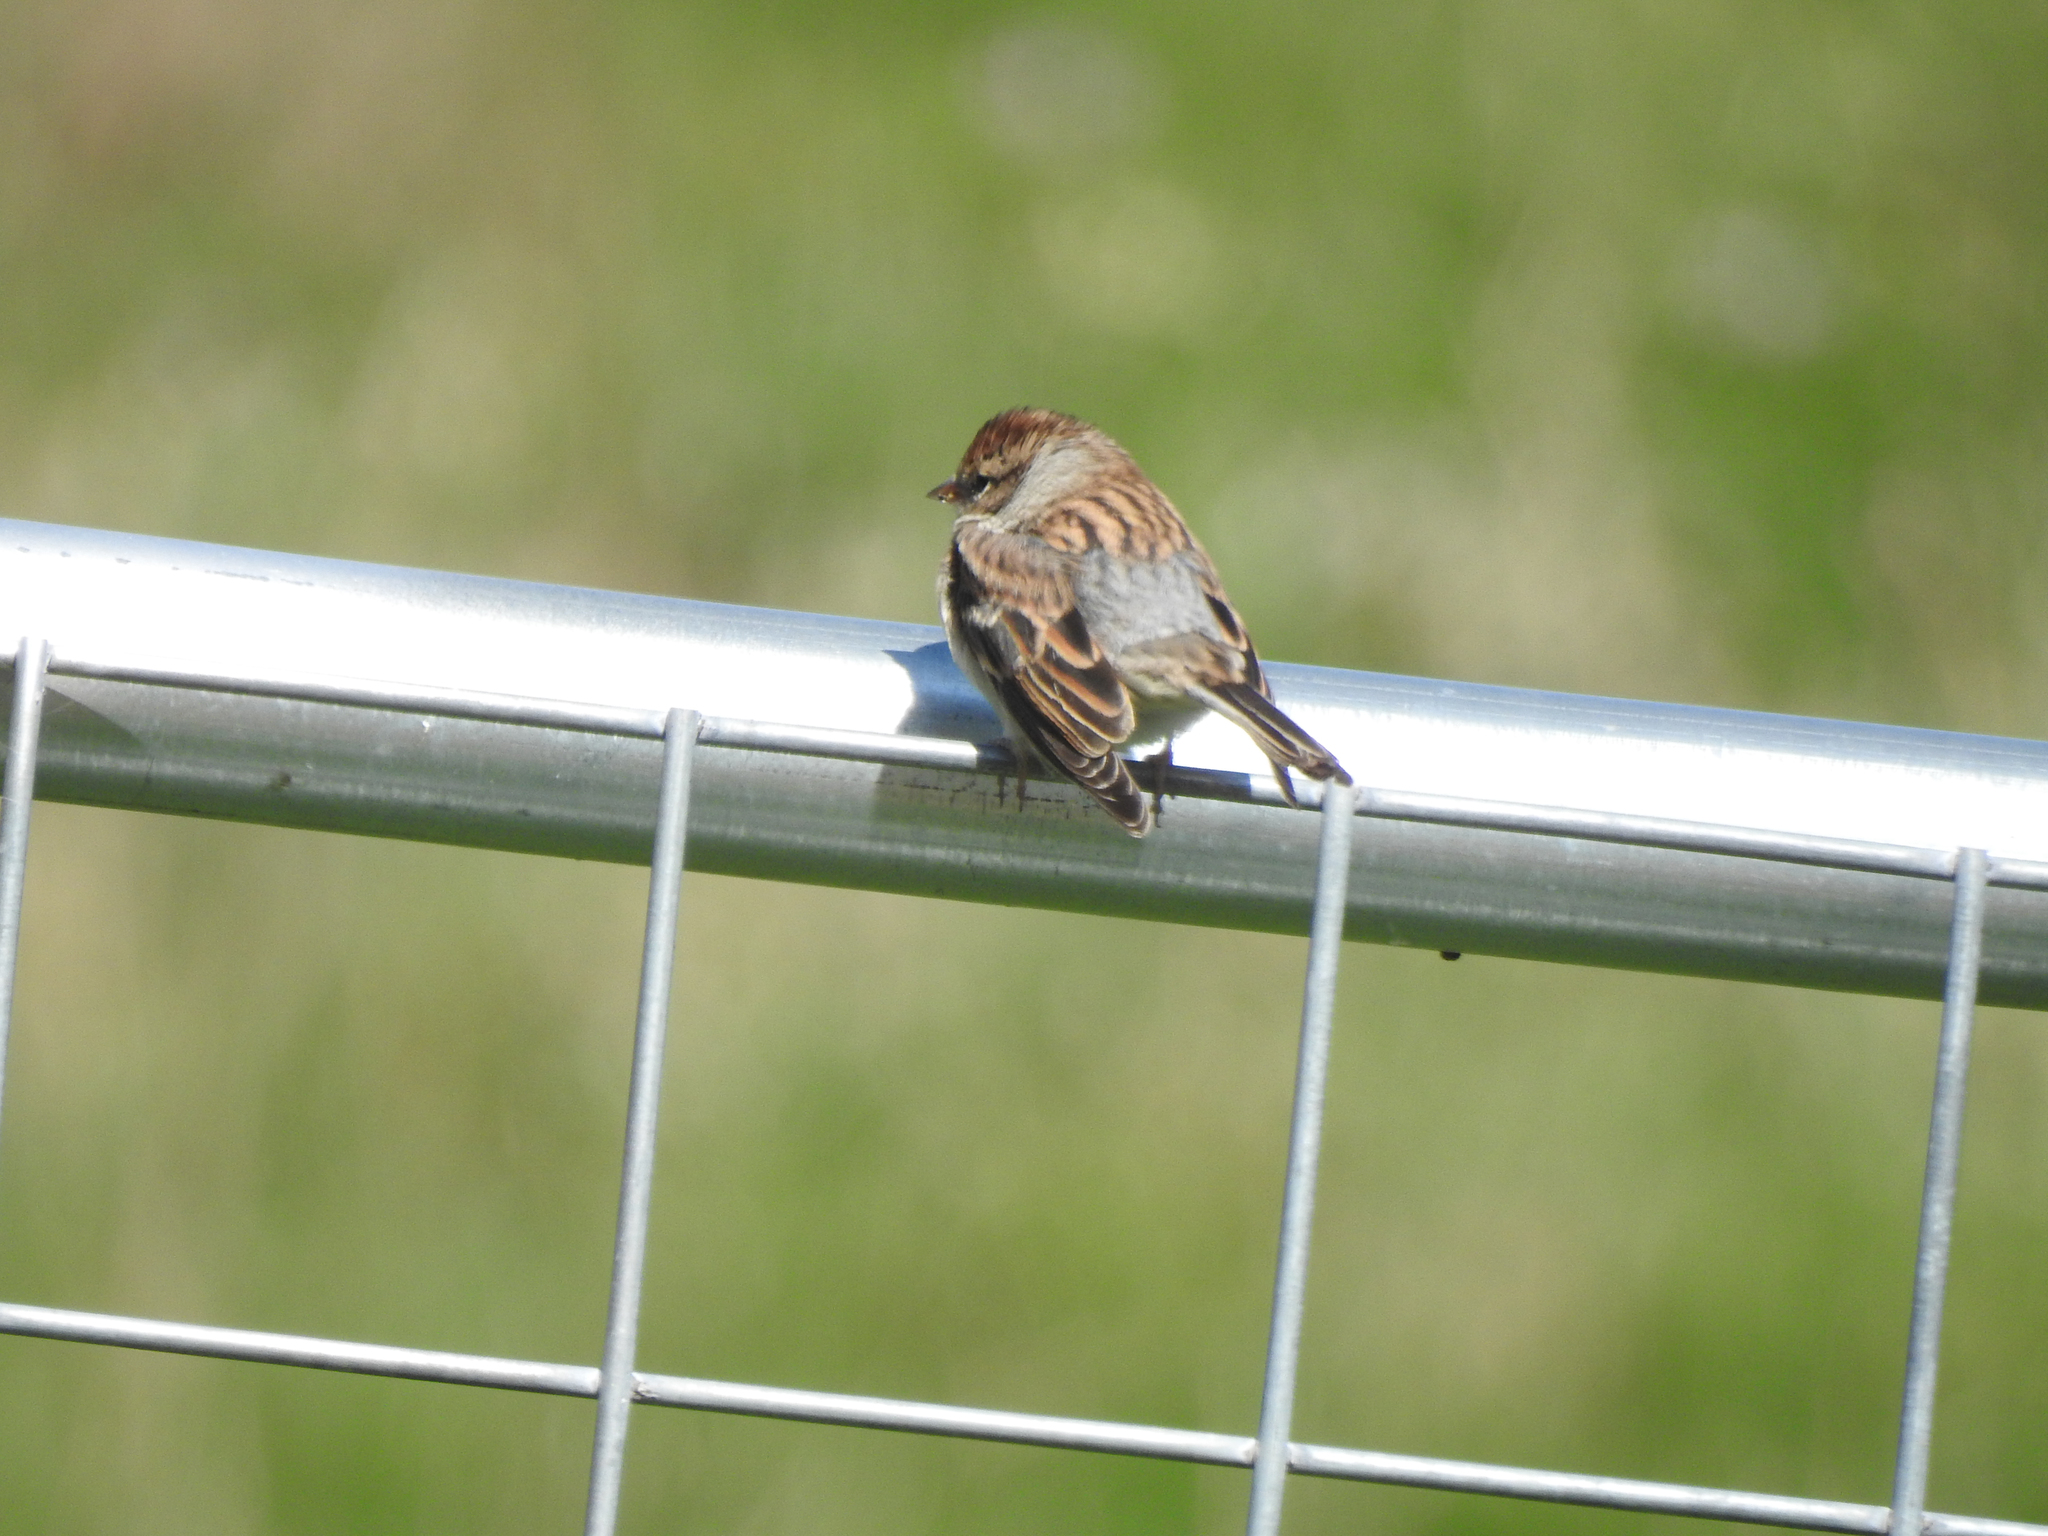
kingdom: Animalia
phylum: Chordata
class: Aves
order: Passeriformes
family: Passerellidae
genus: Spizella
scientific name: Spizella passerina
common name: Chipping sparrow
